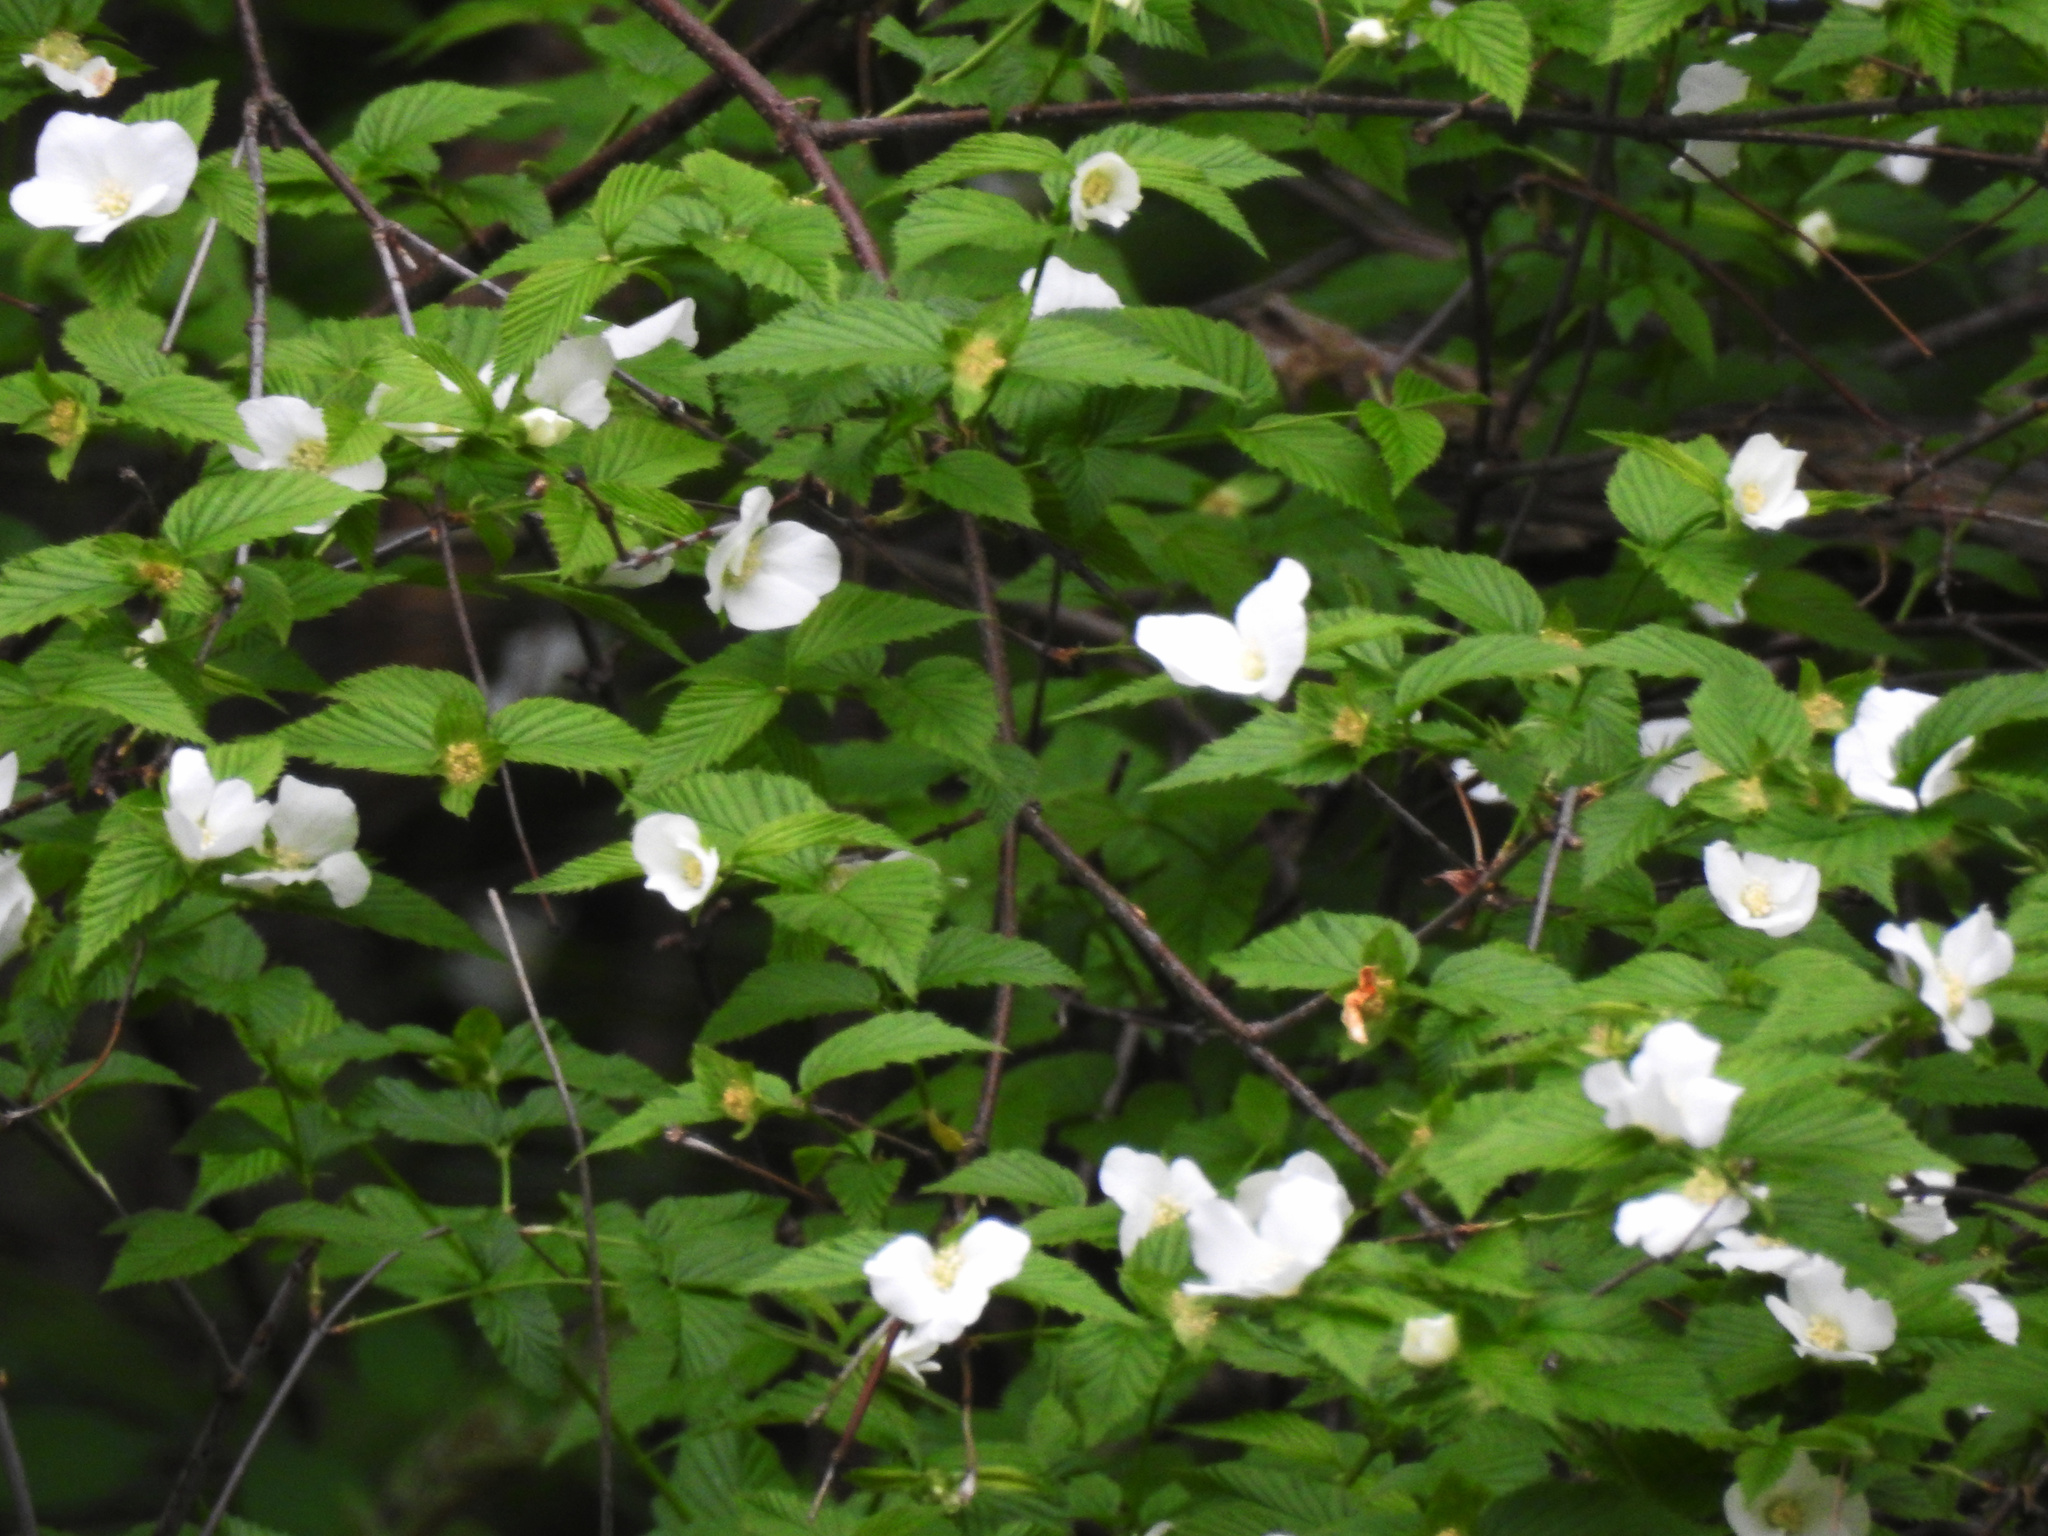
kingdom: Plantae
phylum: Tracheophyta
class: Magnoliopsida
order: Rosales
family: Rosaceae
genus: Rhodotypos
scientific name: Rhodotypos scandens
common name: Jetbead
